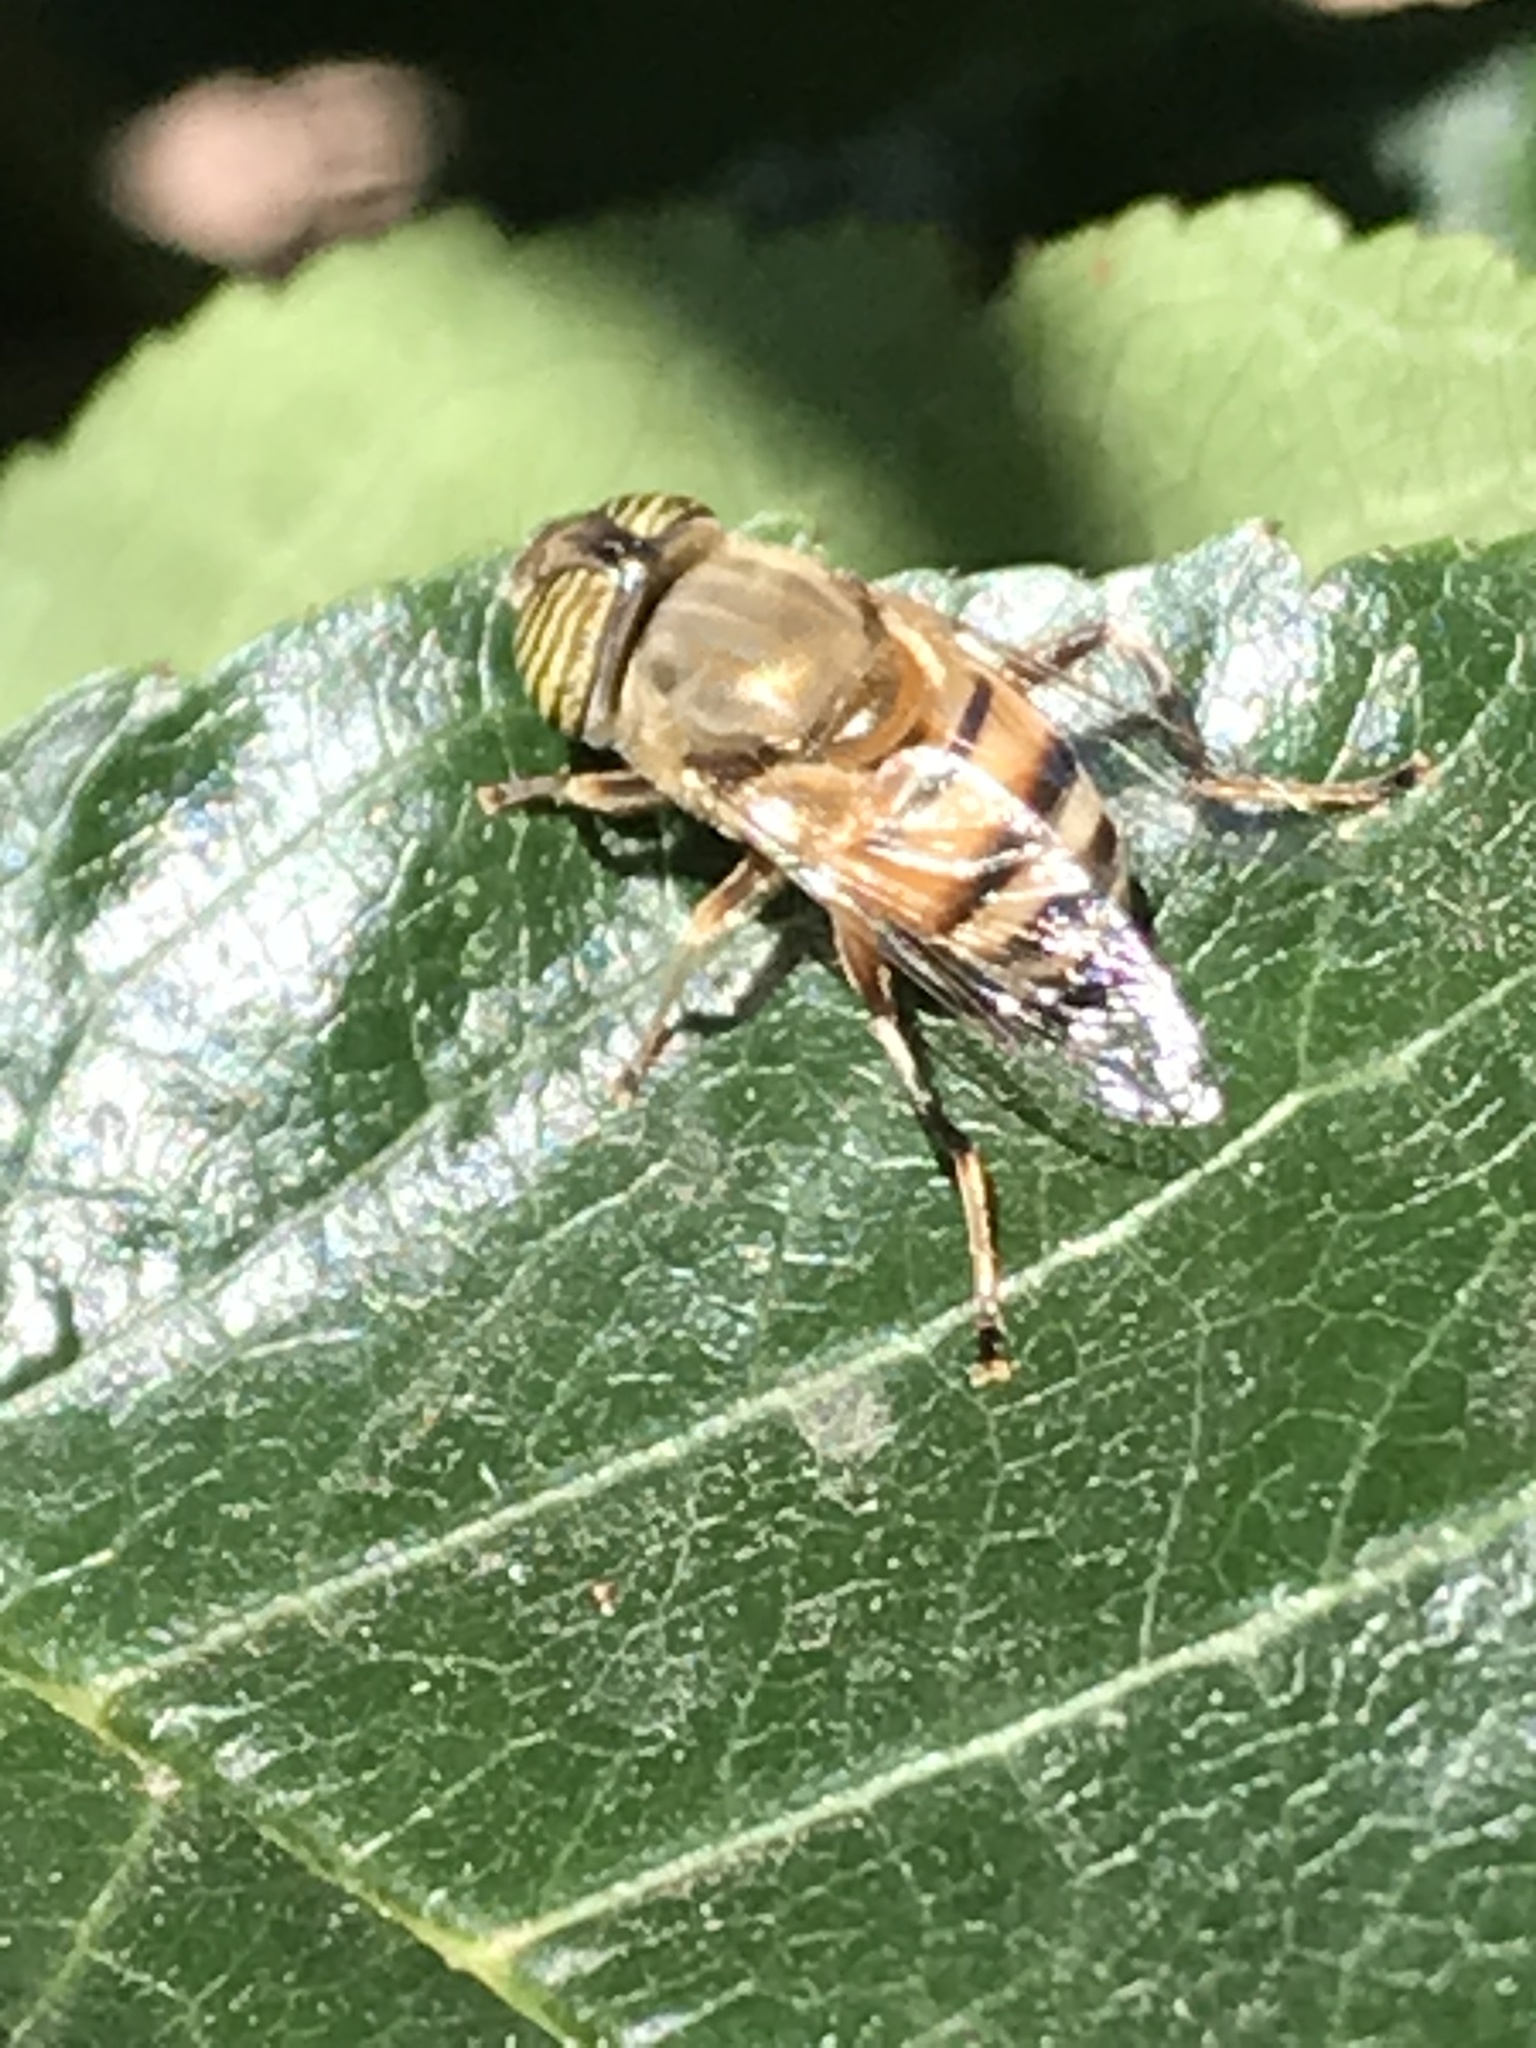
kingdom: Animalia
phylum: Arthropoda
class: Insecta
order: Diptera
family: Syrphidae
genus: Eristalinus
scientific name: Eristalinus taeniops
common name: Syrphid fly
